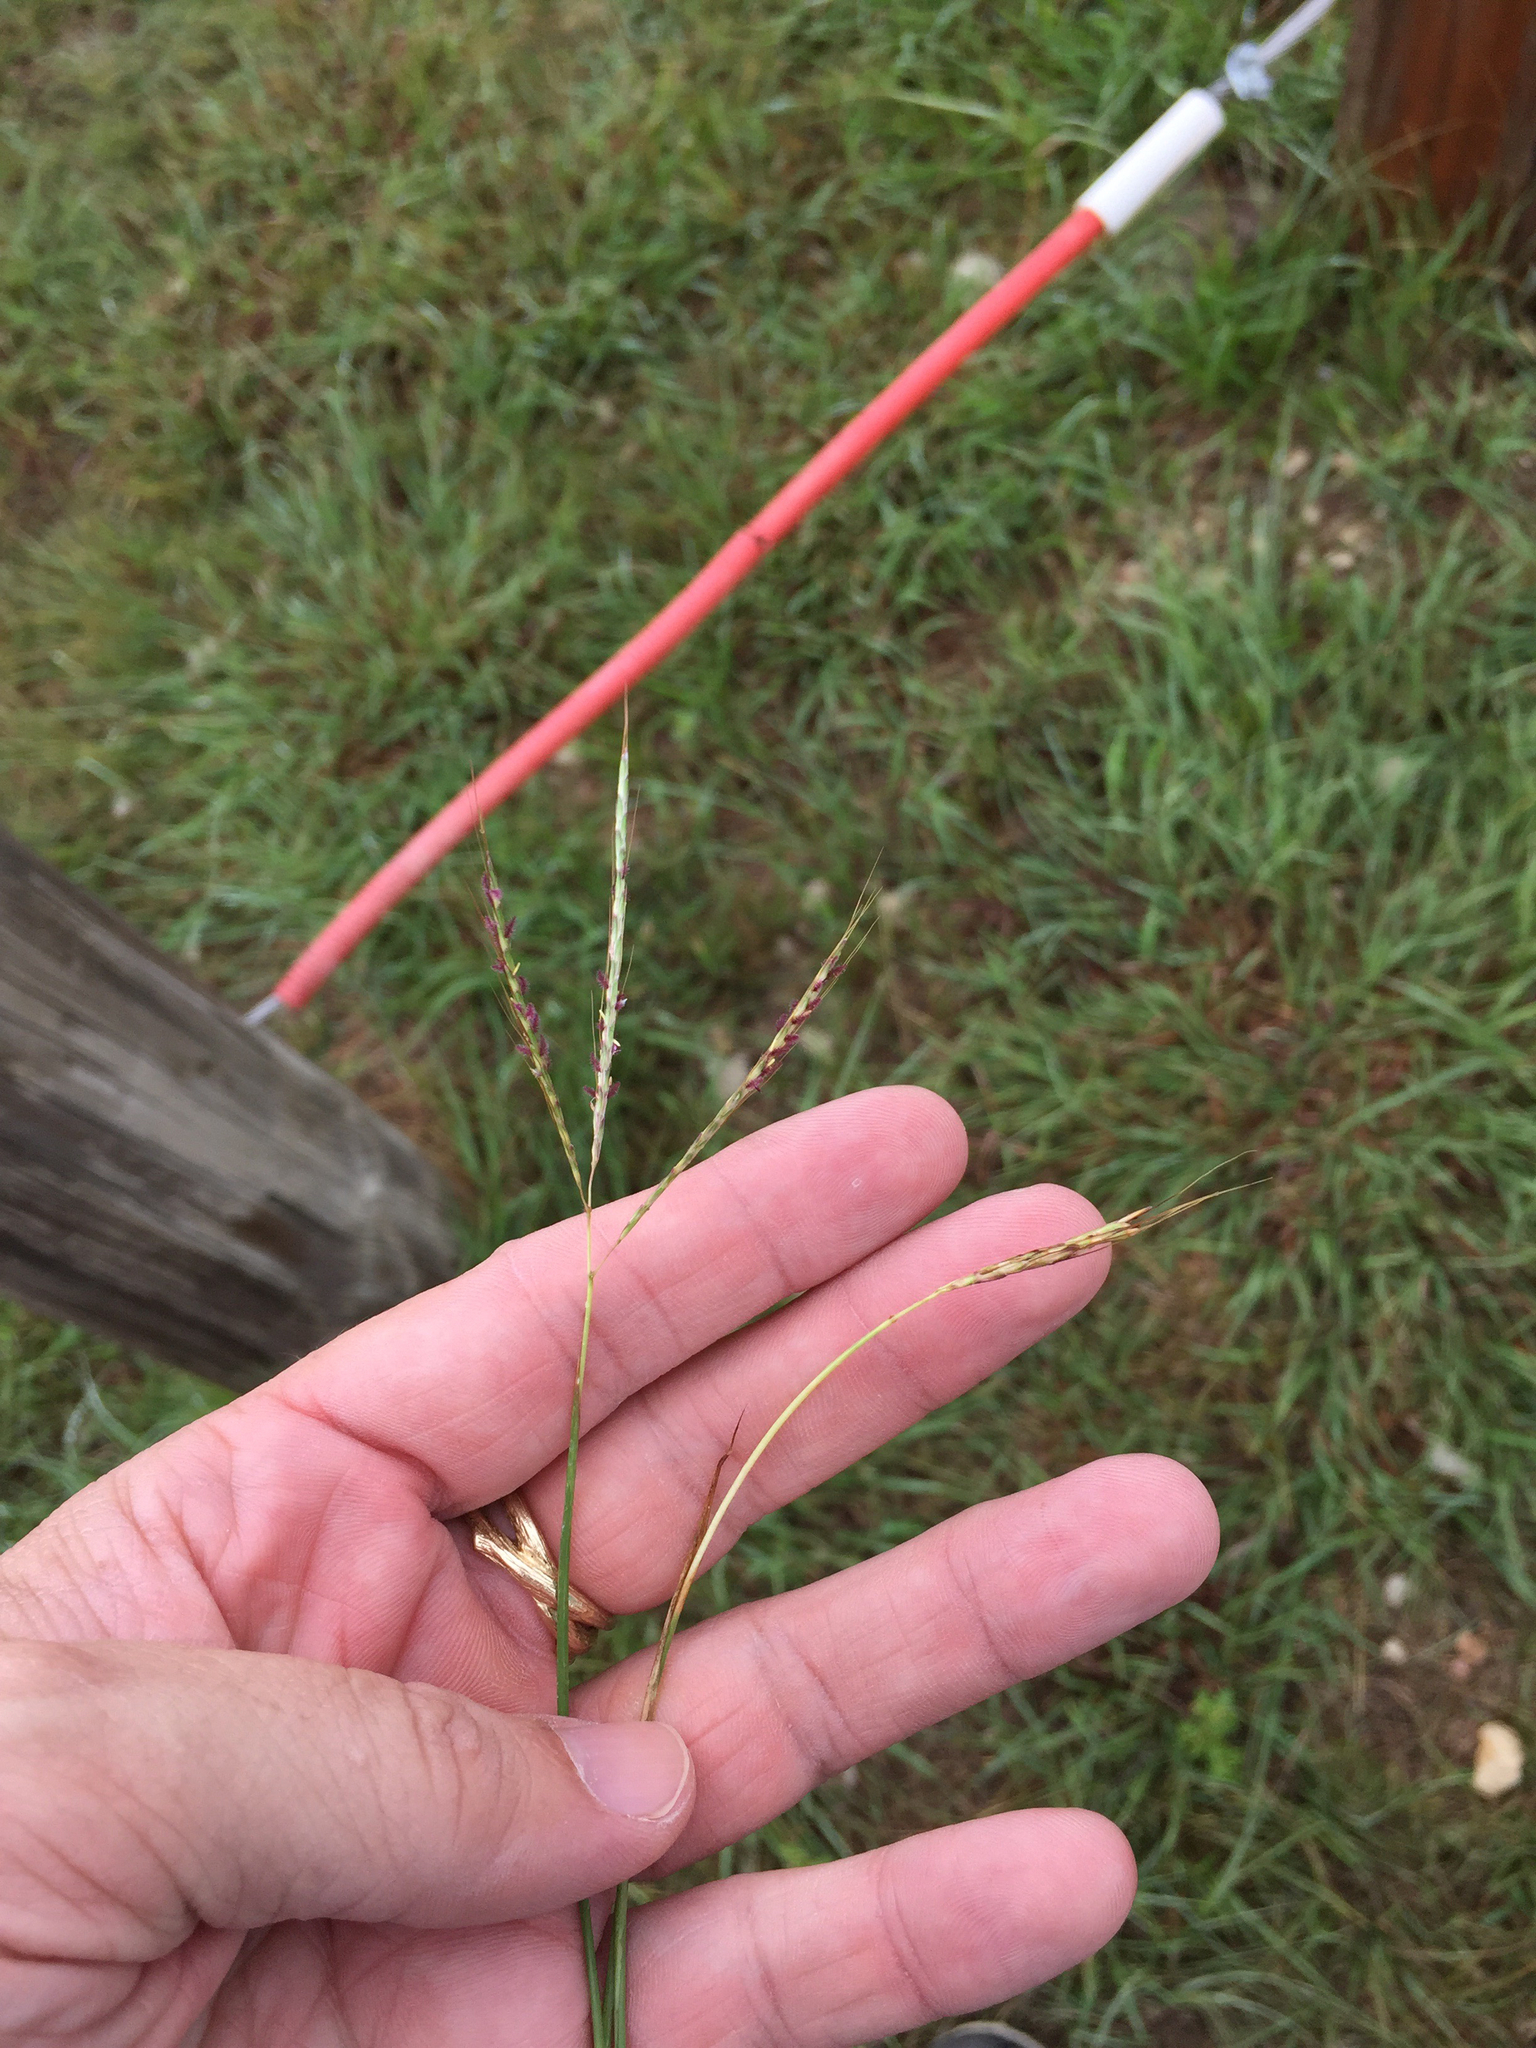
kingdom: Plantae
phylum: Tracheophyta
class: Liliopsida
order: Poales
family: Poaceae
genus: Bothriochloa
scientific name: Bothriochloa ischaemum
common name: Yellow bluestem
